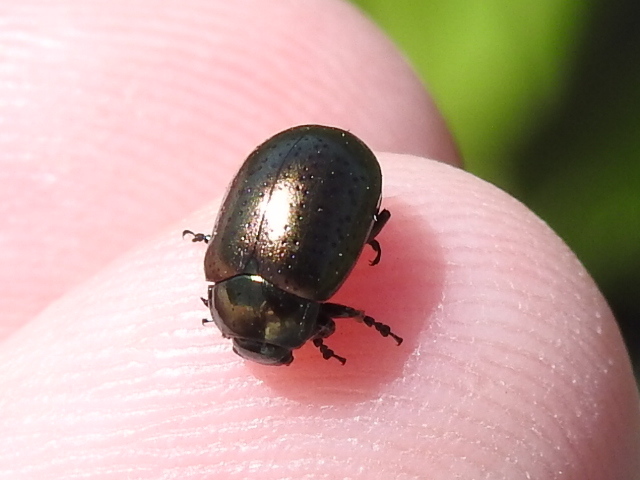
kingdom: Animalia
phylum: Arthropoda
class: Insecta
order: Coleoptera
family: Chrysomelidae
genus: Chrysolina
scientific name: Chrysolina hyperici
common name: St. johnswort beetle
